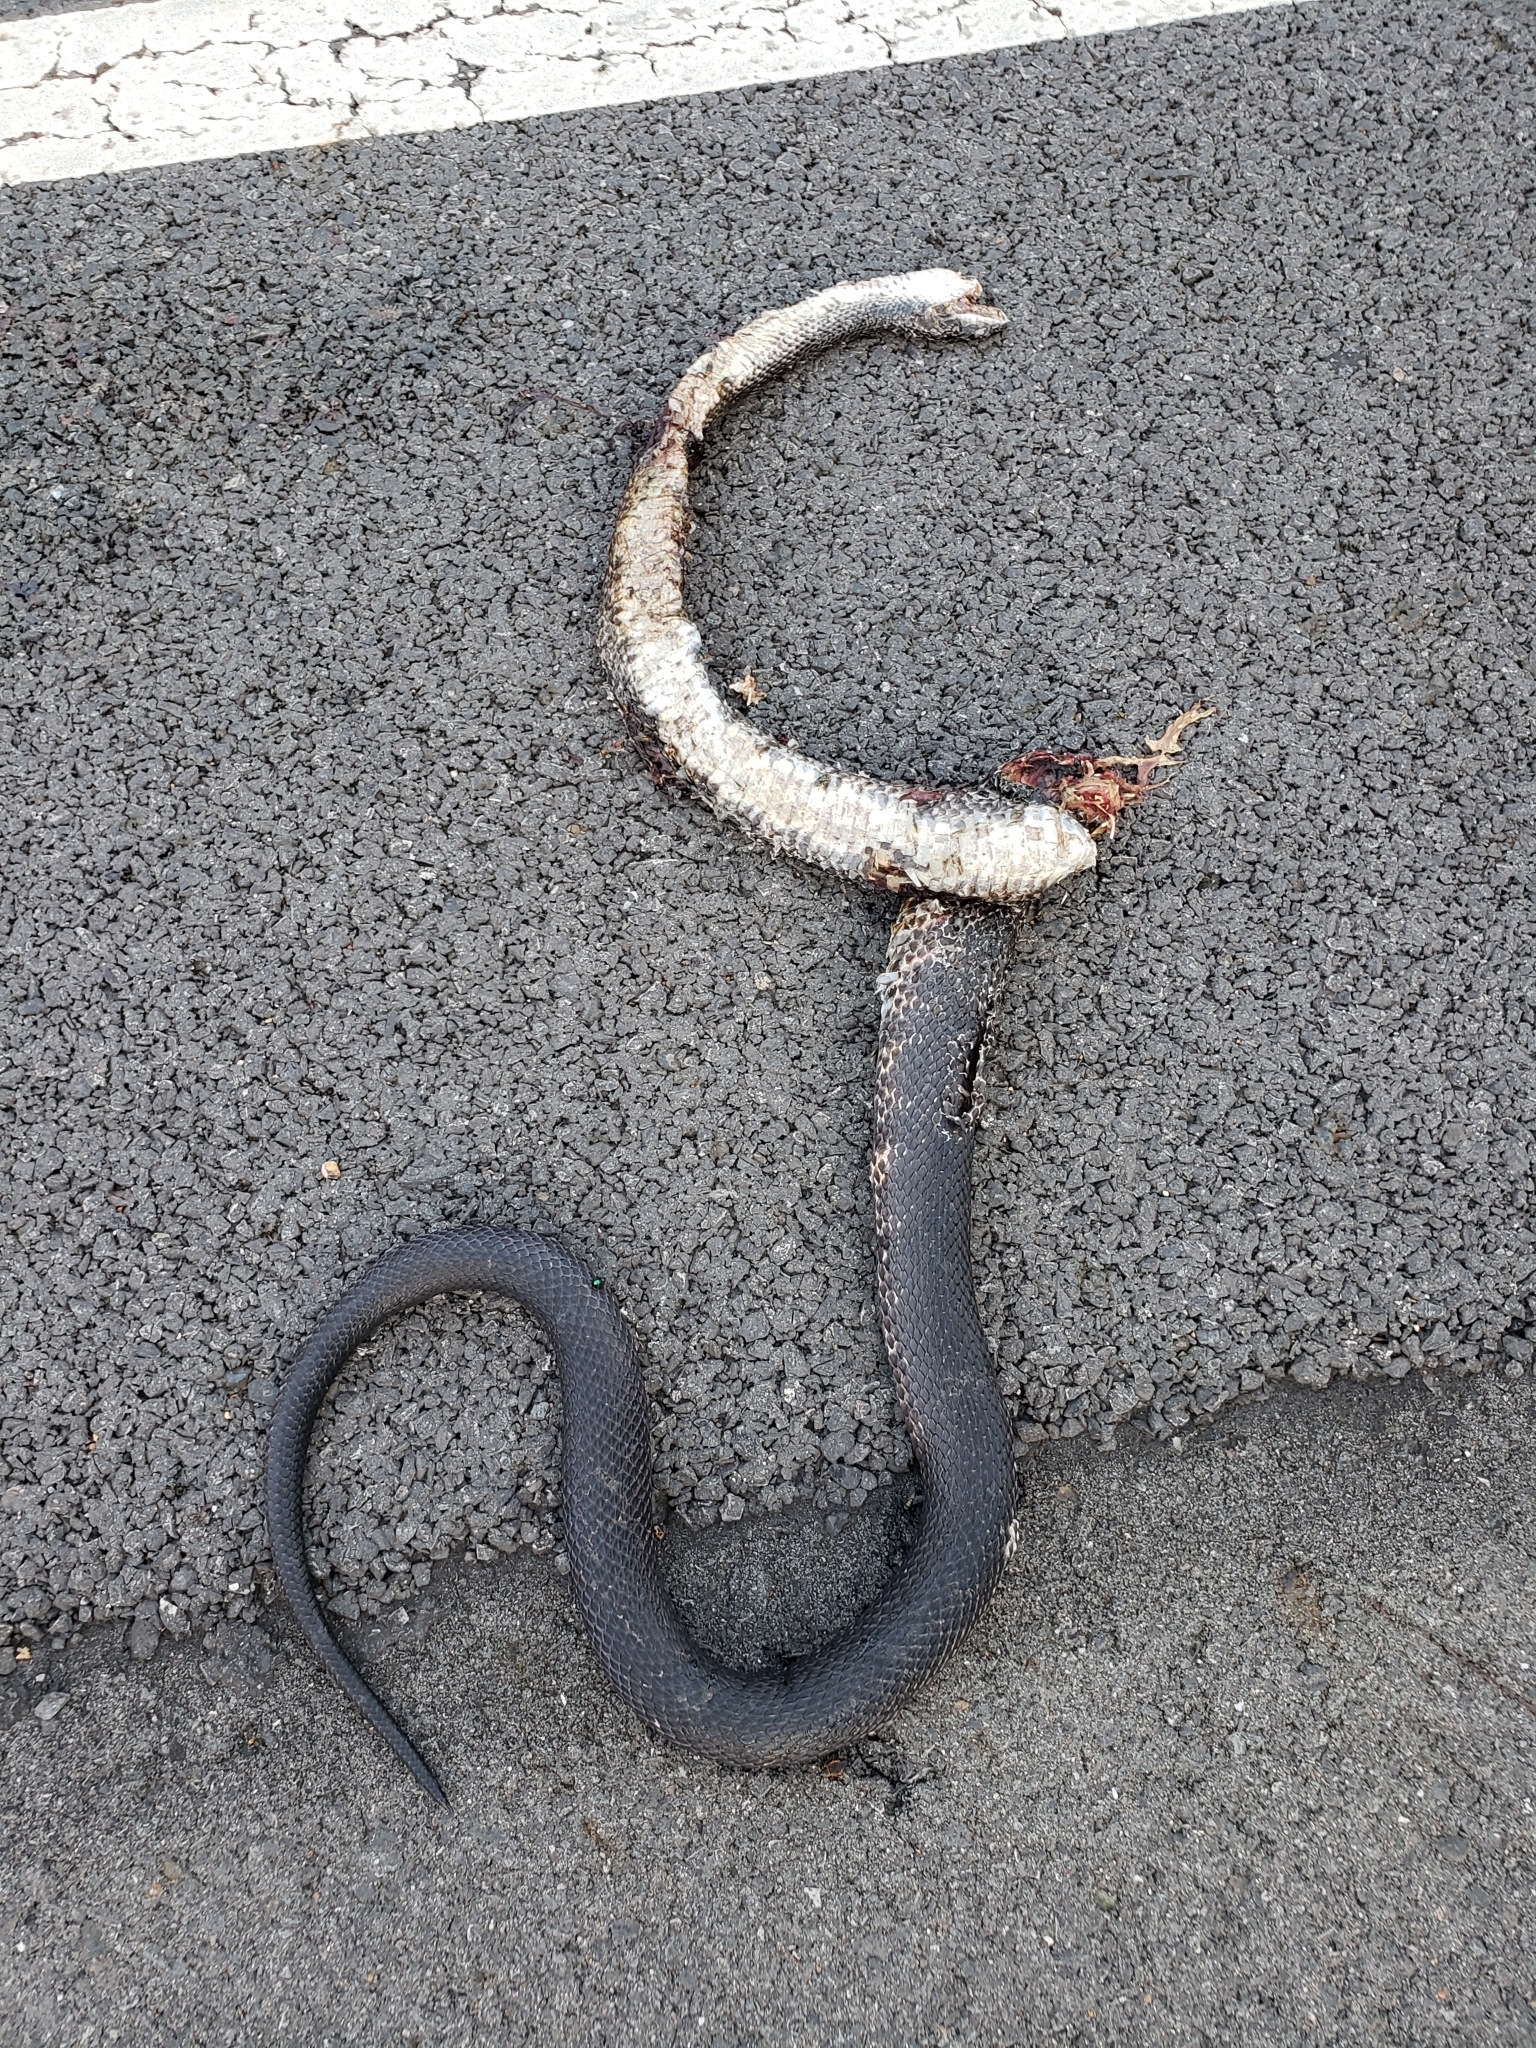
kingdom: Animalia
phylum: Chordata
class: Squamata
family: Colubridae
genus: Pantherophis
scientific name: Pantherophis obsoletus
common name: Black rat snake
